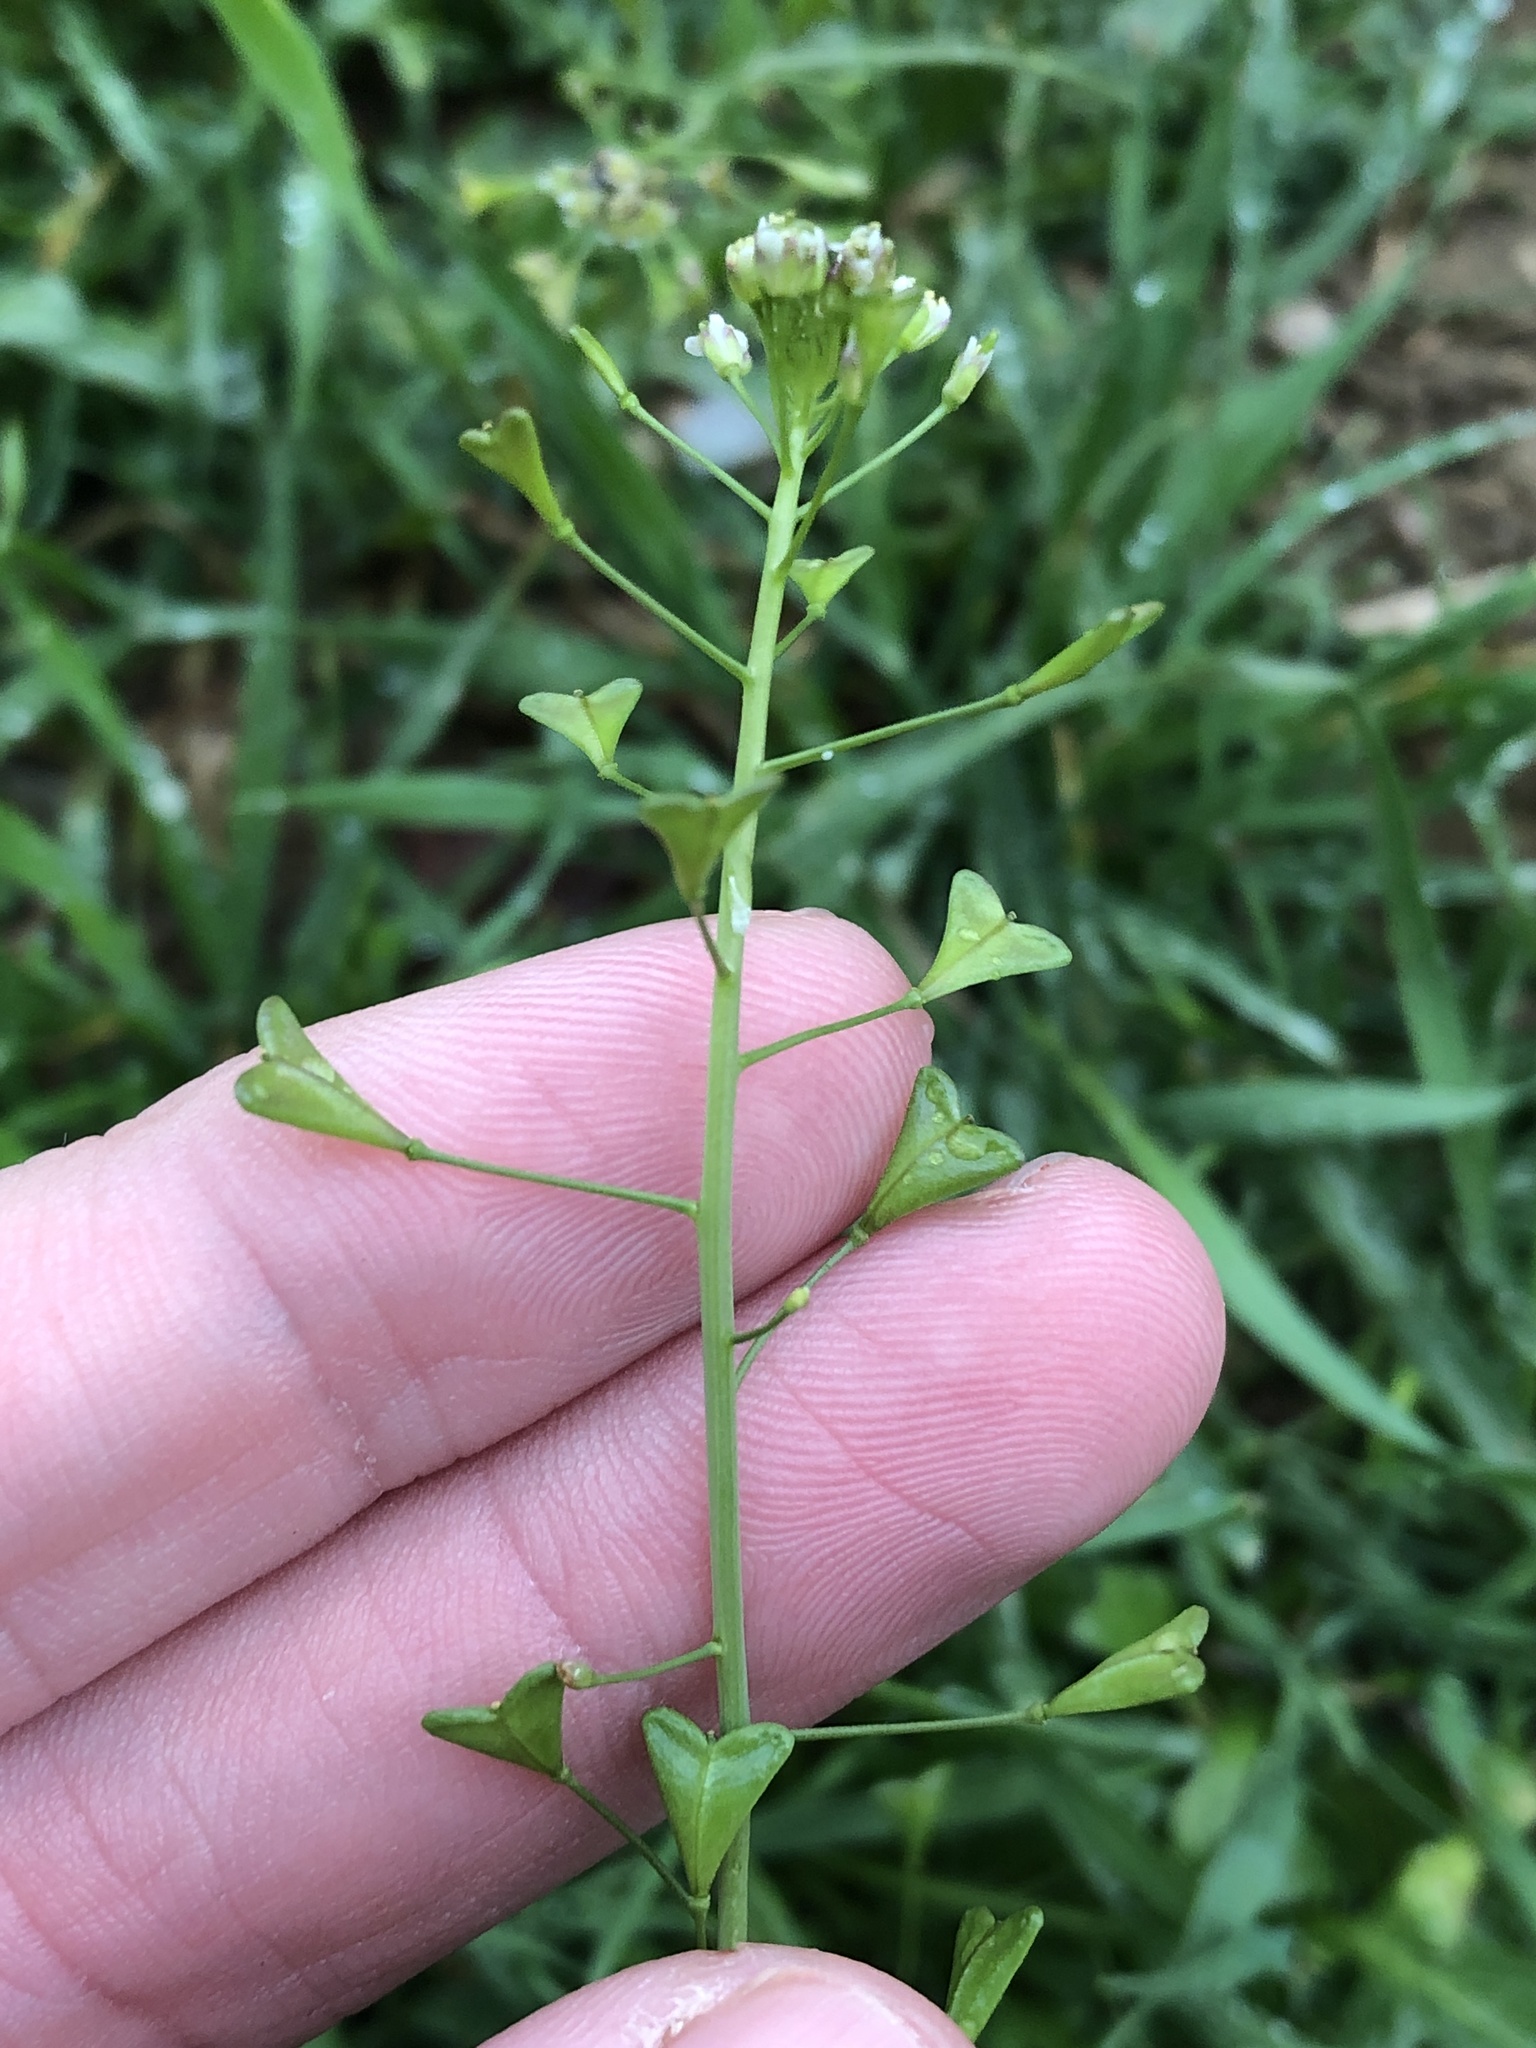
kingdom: Plantae
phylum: Tracheophyta
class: Magnoliopsida
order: Brassicales
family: Brassicaceae
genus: Capsella
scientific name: Capsella bursa-pastoris
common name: Shepherd's purse
